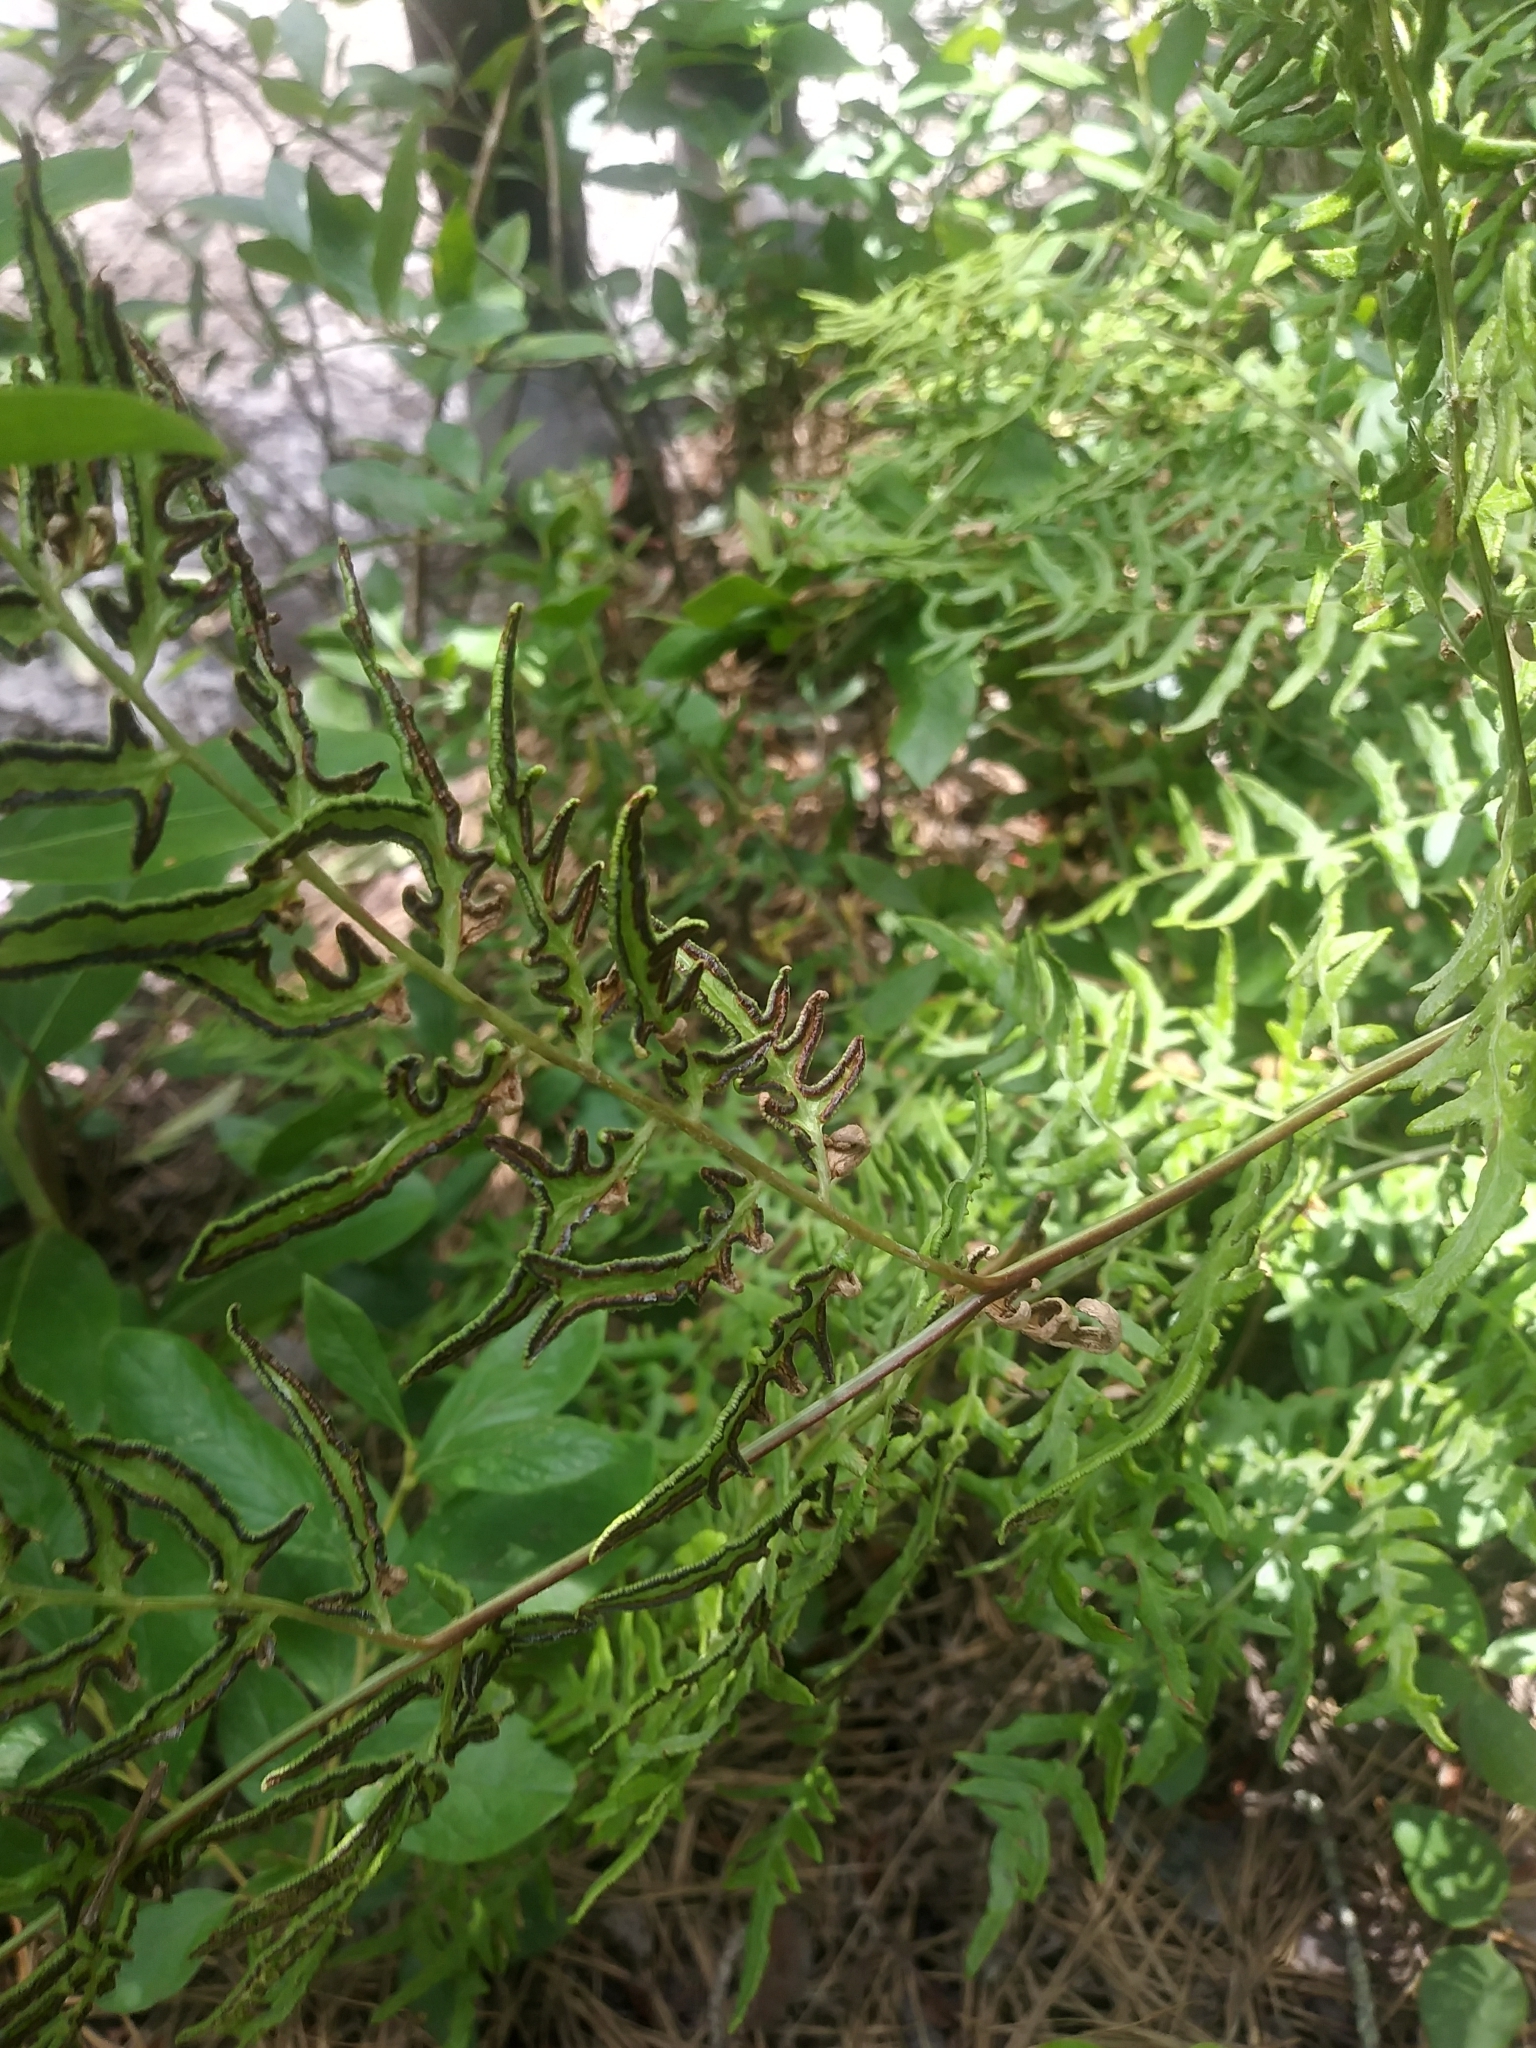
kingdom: Plantae
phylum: Tracheophyta
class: Polypodiopsida
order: Polypodiales
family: Dennstaedtiaceae
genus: Pteridium
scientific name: Pteridium
